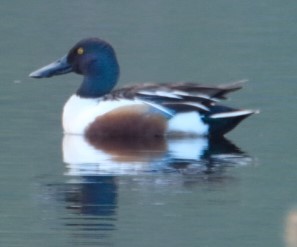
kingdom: Animalia
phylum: Chordata
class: Aves
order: Anseriformes
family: Anatidae
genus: Spatula
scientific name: Spatula clypeata
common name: Northern shoveler
